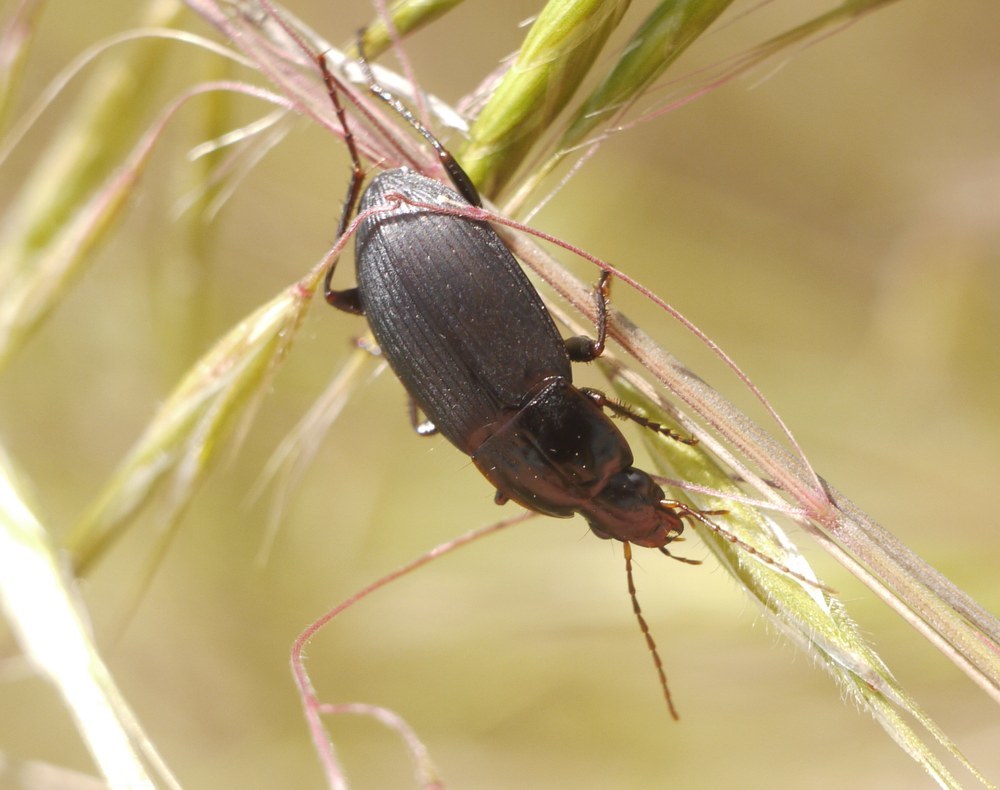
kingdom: Animalia
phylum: Arthropoda
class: Insecta
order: Coleoptera
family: Carabidae
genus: Calathus
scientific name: Calathus fuscipes
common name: Dark-footed harp ground beetle
